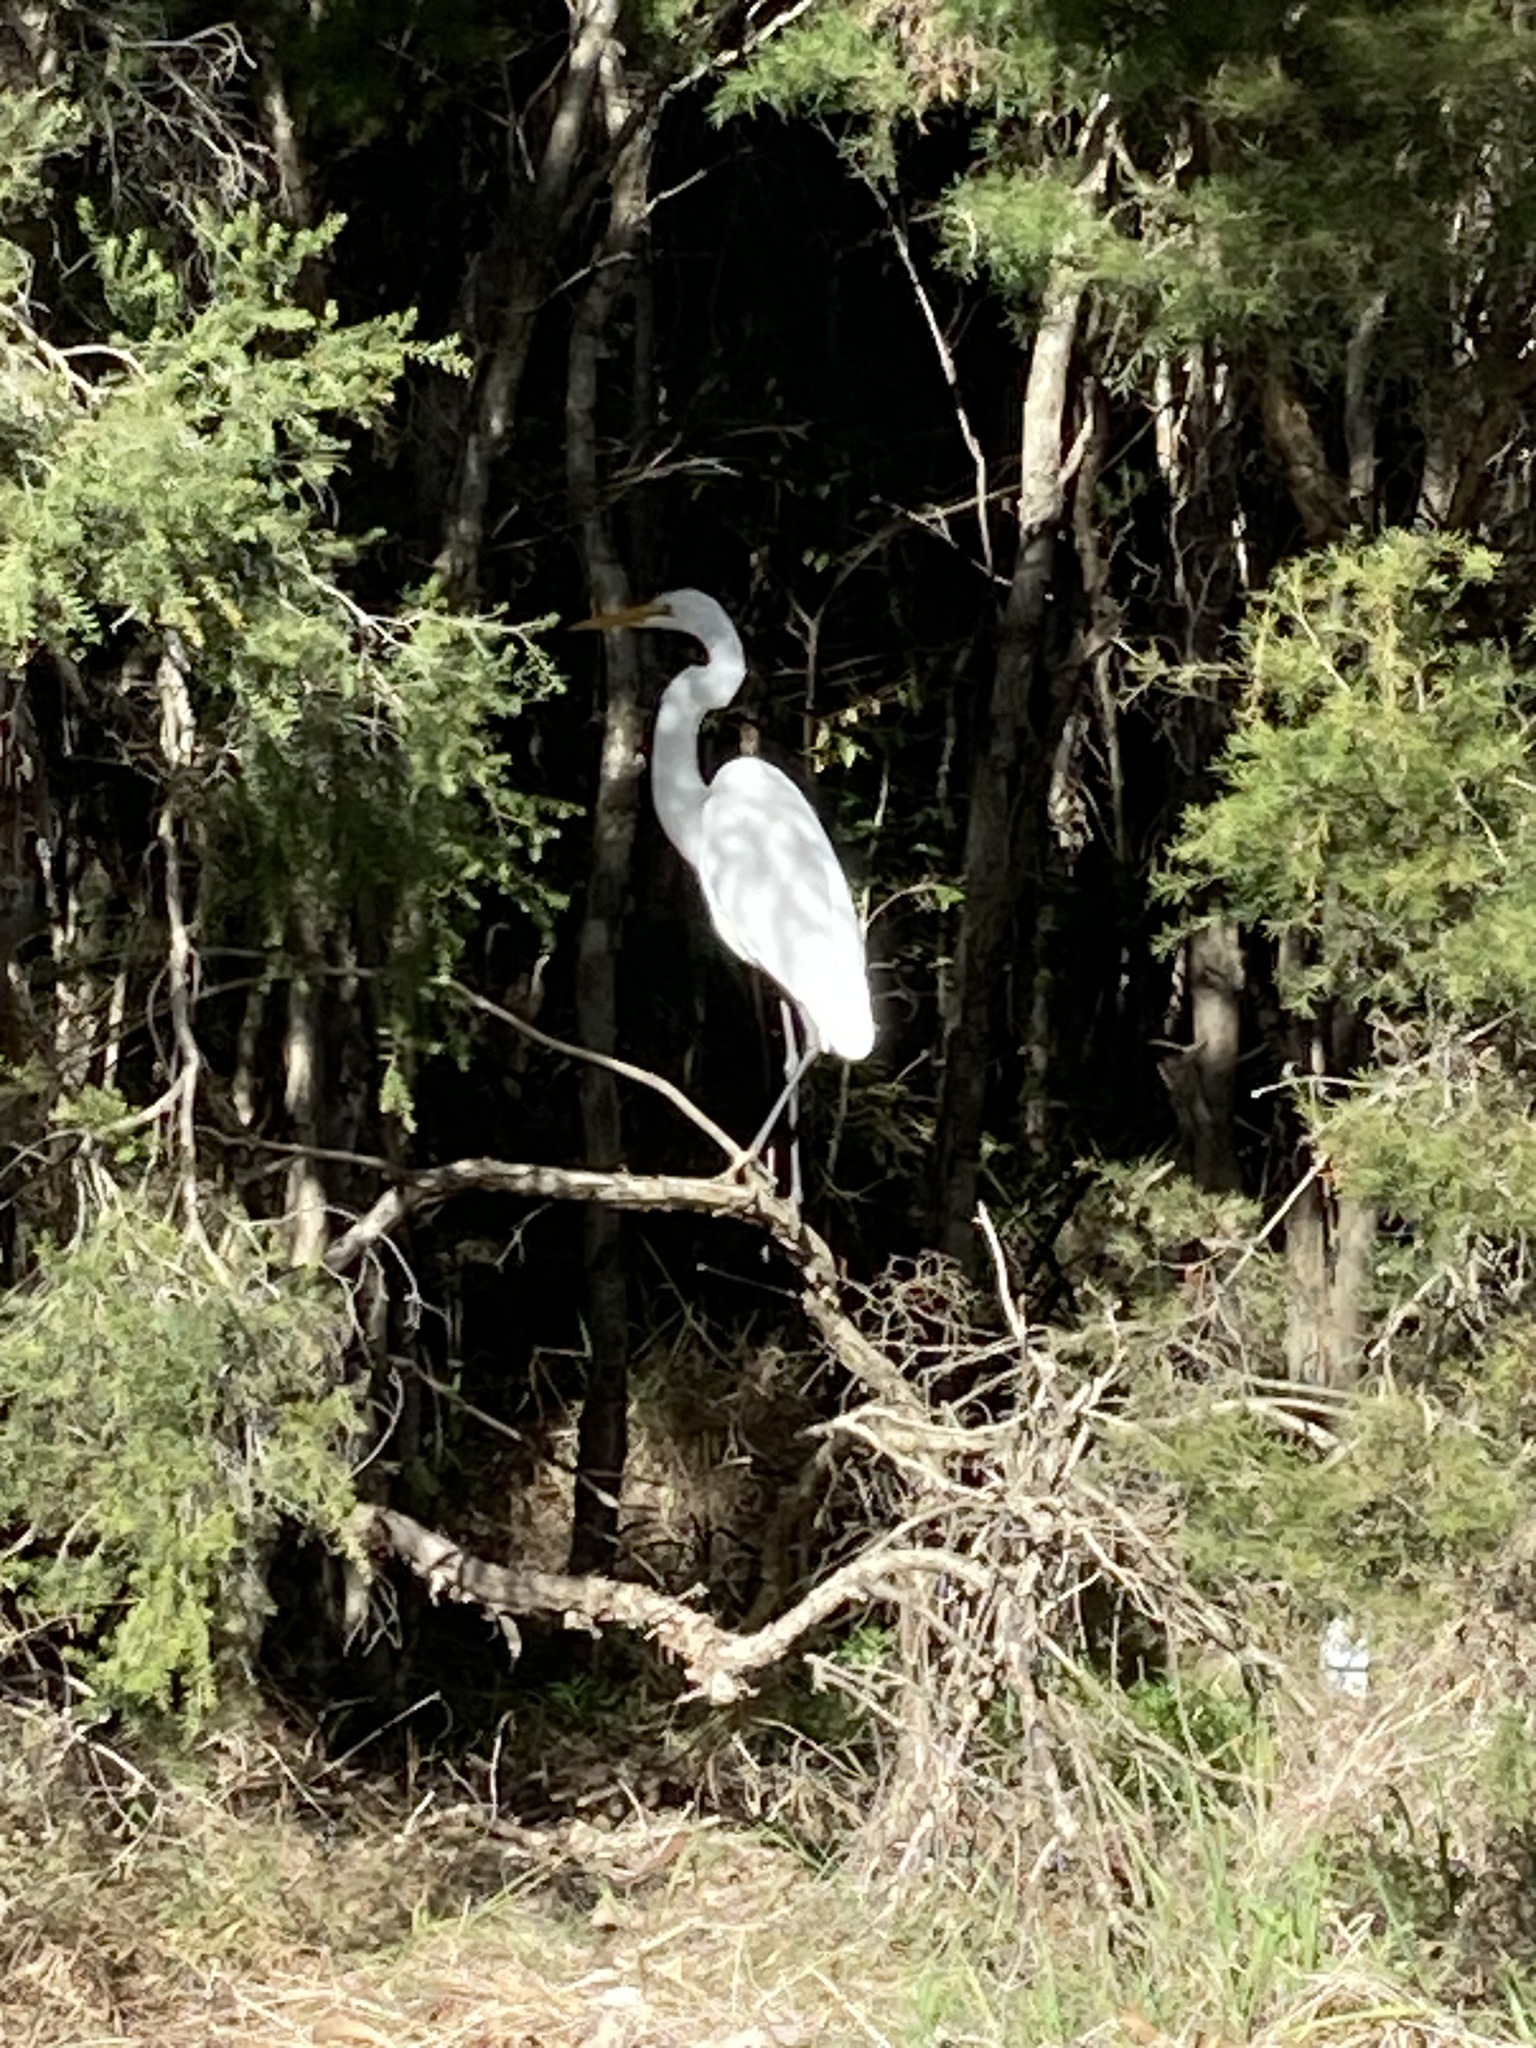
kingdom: Animalia
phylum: Chordata
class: Aves
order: Pelecaniformes
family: Ardeidae
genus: Ardea
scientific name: Ardea modesta
